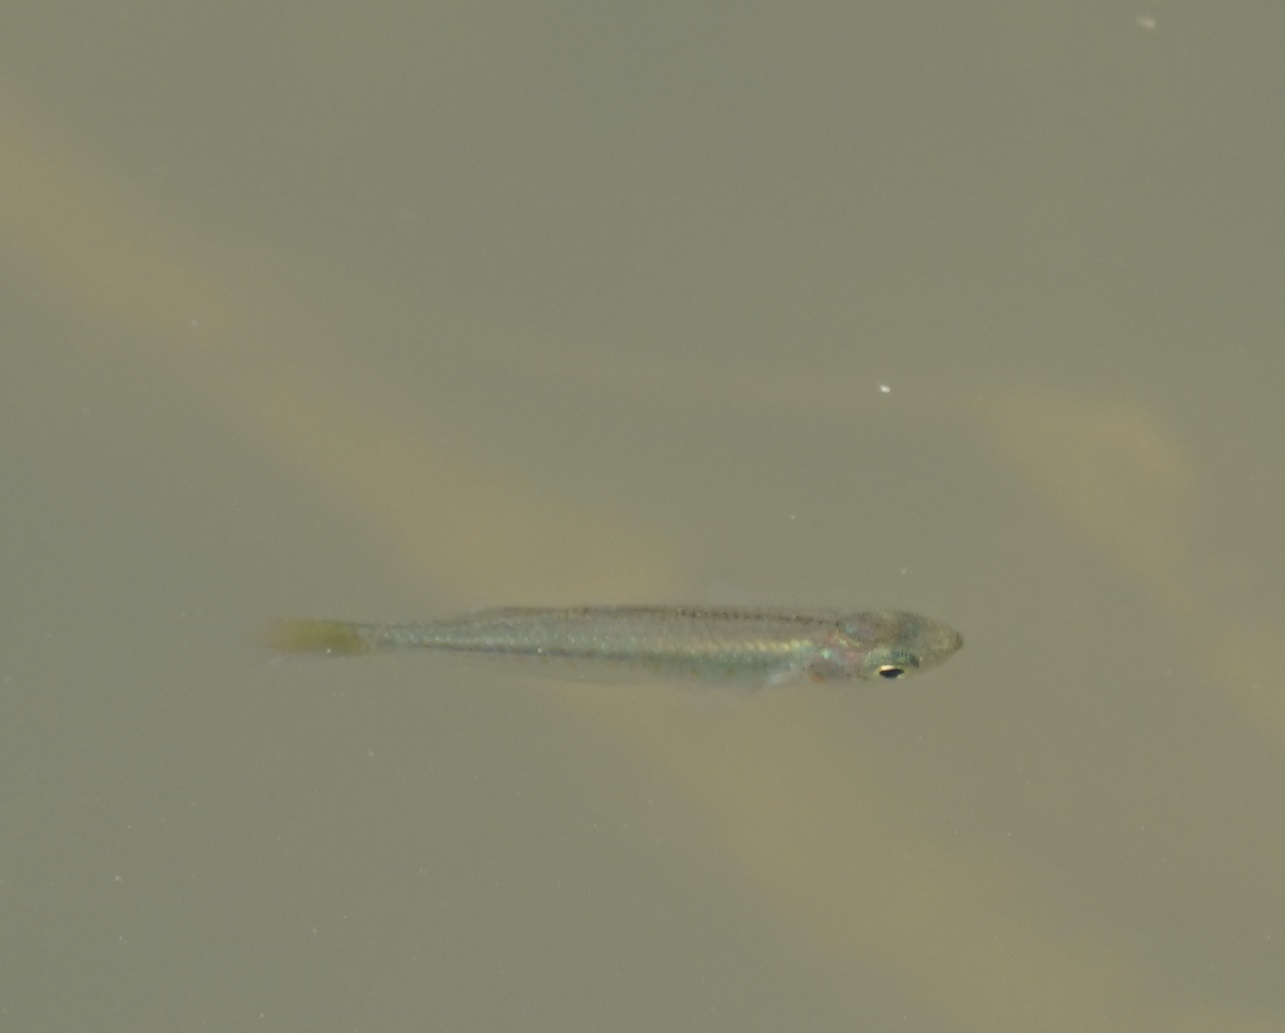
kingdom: Animalia
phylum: Chordata
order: Atheriniformes
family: Melanotaeniidae
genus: Melanotaenia
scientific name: Melanotaenia splendida
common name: Checkered rainbowfish
